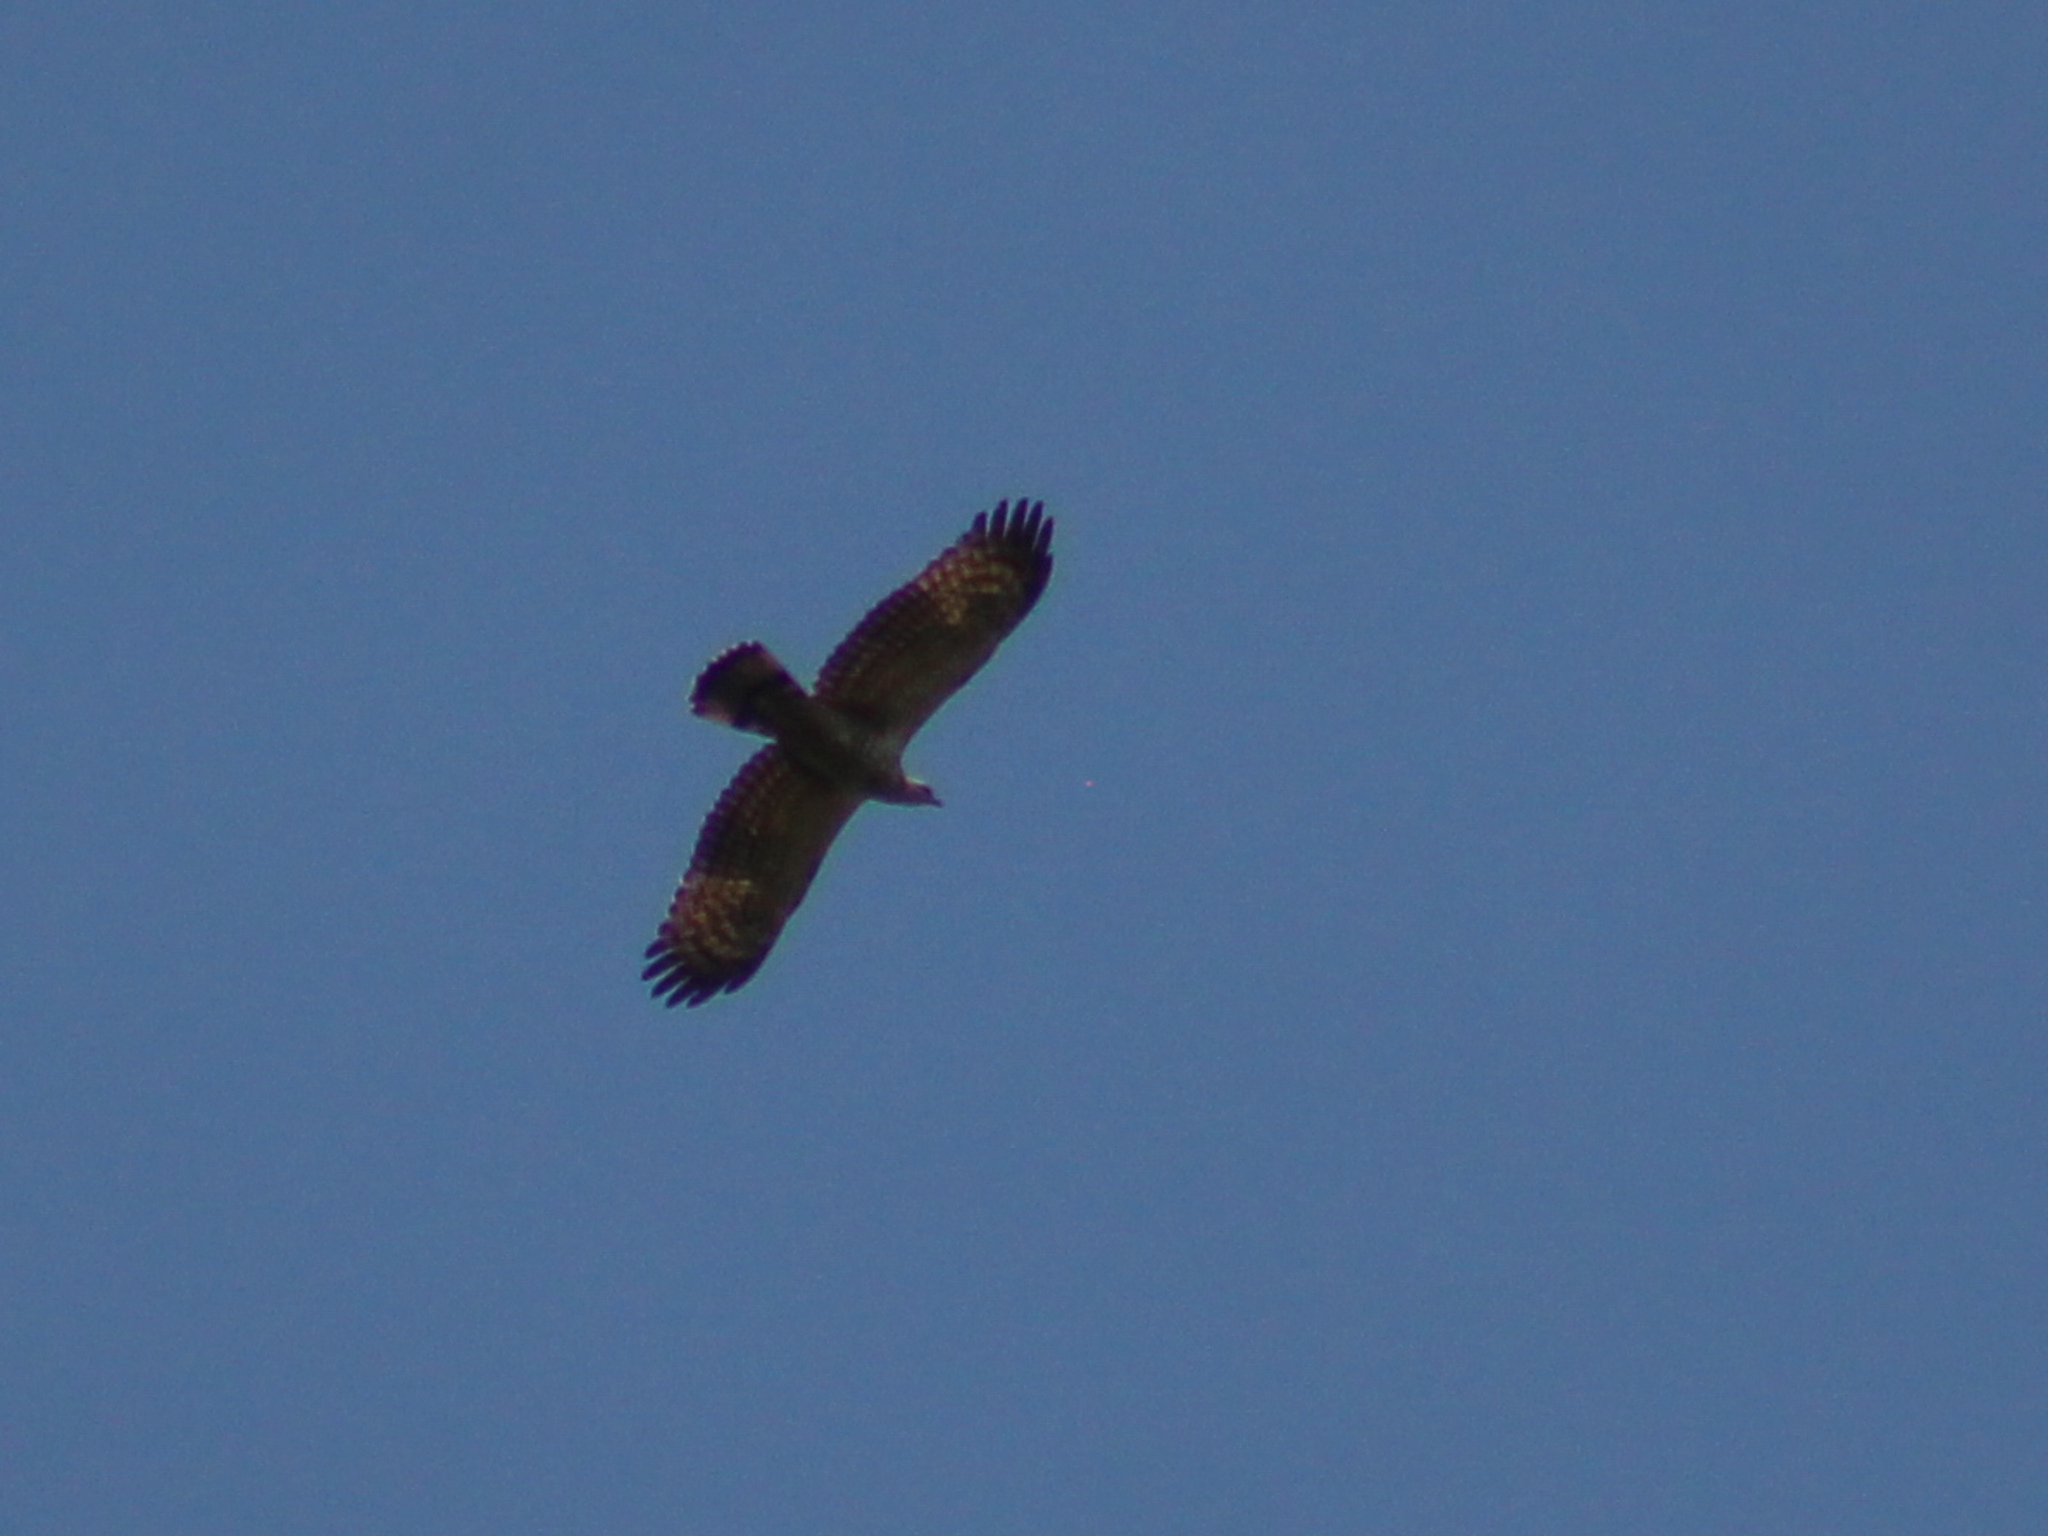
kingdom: Animalia
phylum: Chordata
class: Aves
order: Accipitriformes
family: Accipitridae
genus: Pernis
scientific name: Pernis ptilorhynchus
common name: Crested honey buzzard
